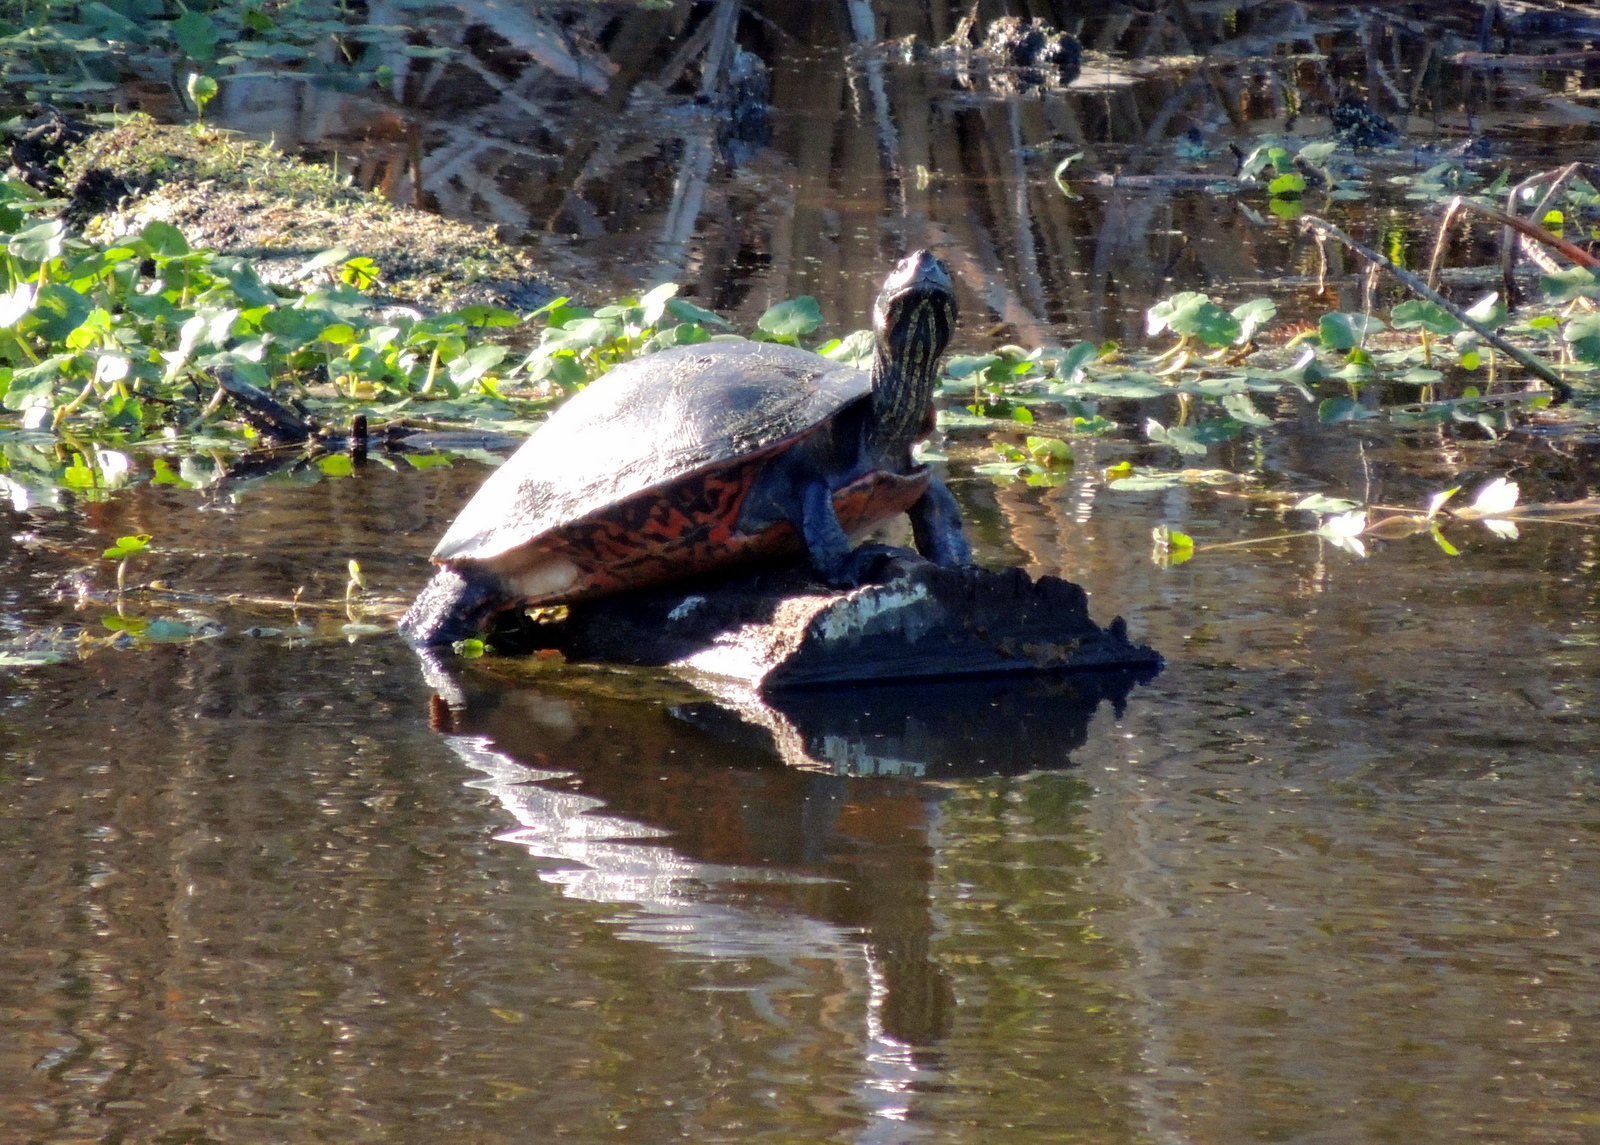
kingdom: Animalia
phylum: Chordata
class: Testudines
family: Emydidae
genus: Pseudemys
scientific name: Pseudemys nelsoni
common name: Florida red-bellied turtle
